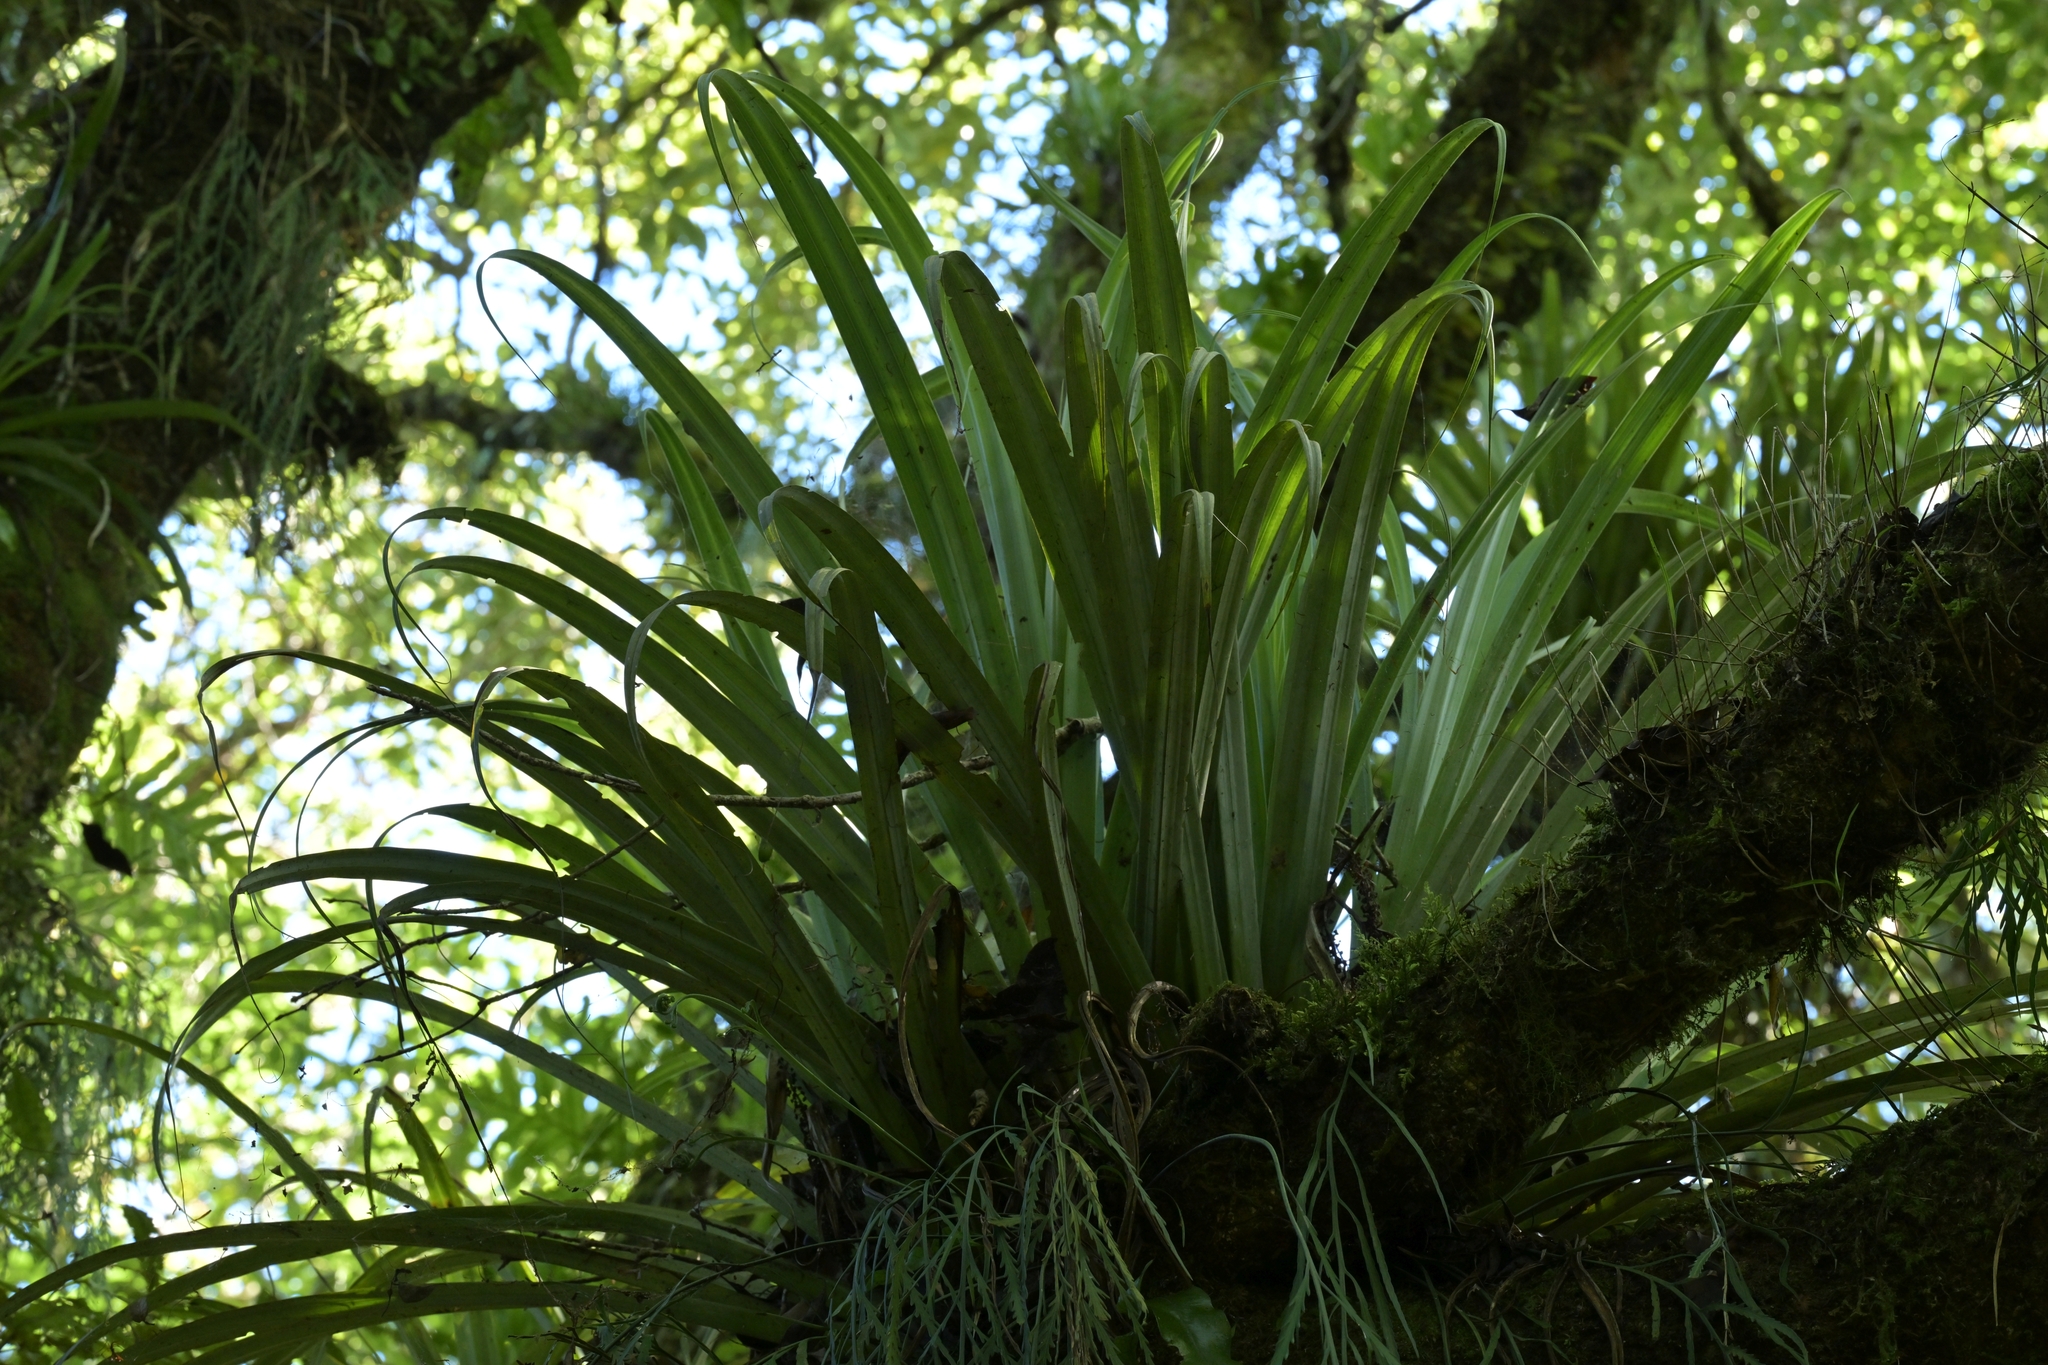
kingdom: Plantae
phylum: Tracheophyta
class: Liliopsida
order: Asparagales
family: Asteliaceae
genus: Astelia
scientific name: Astelia microsperma
